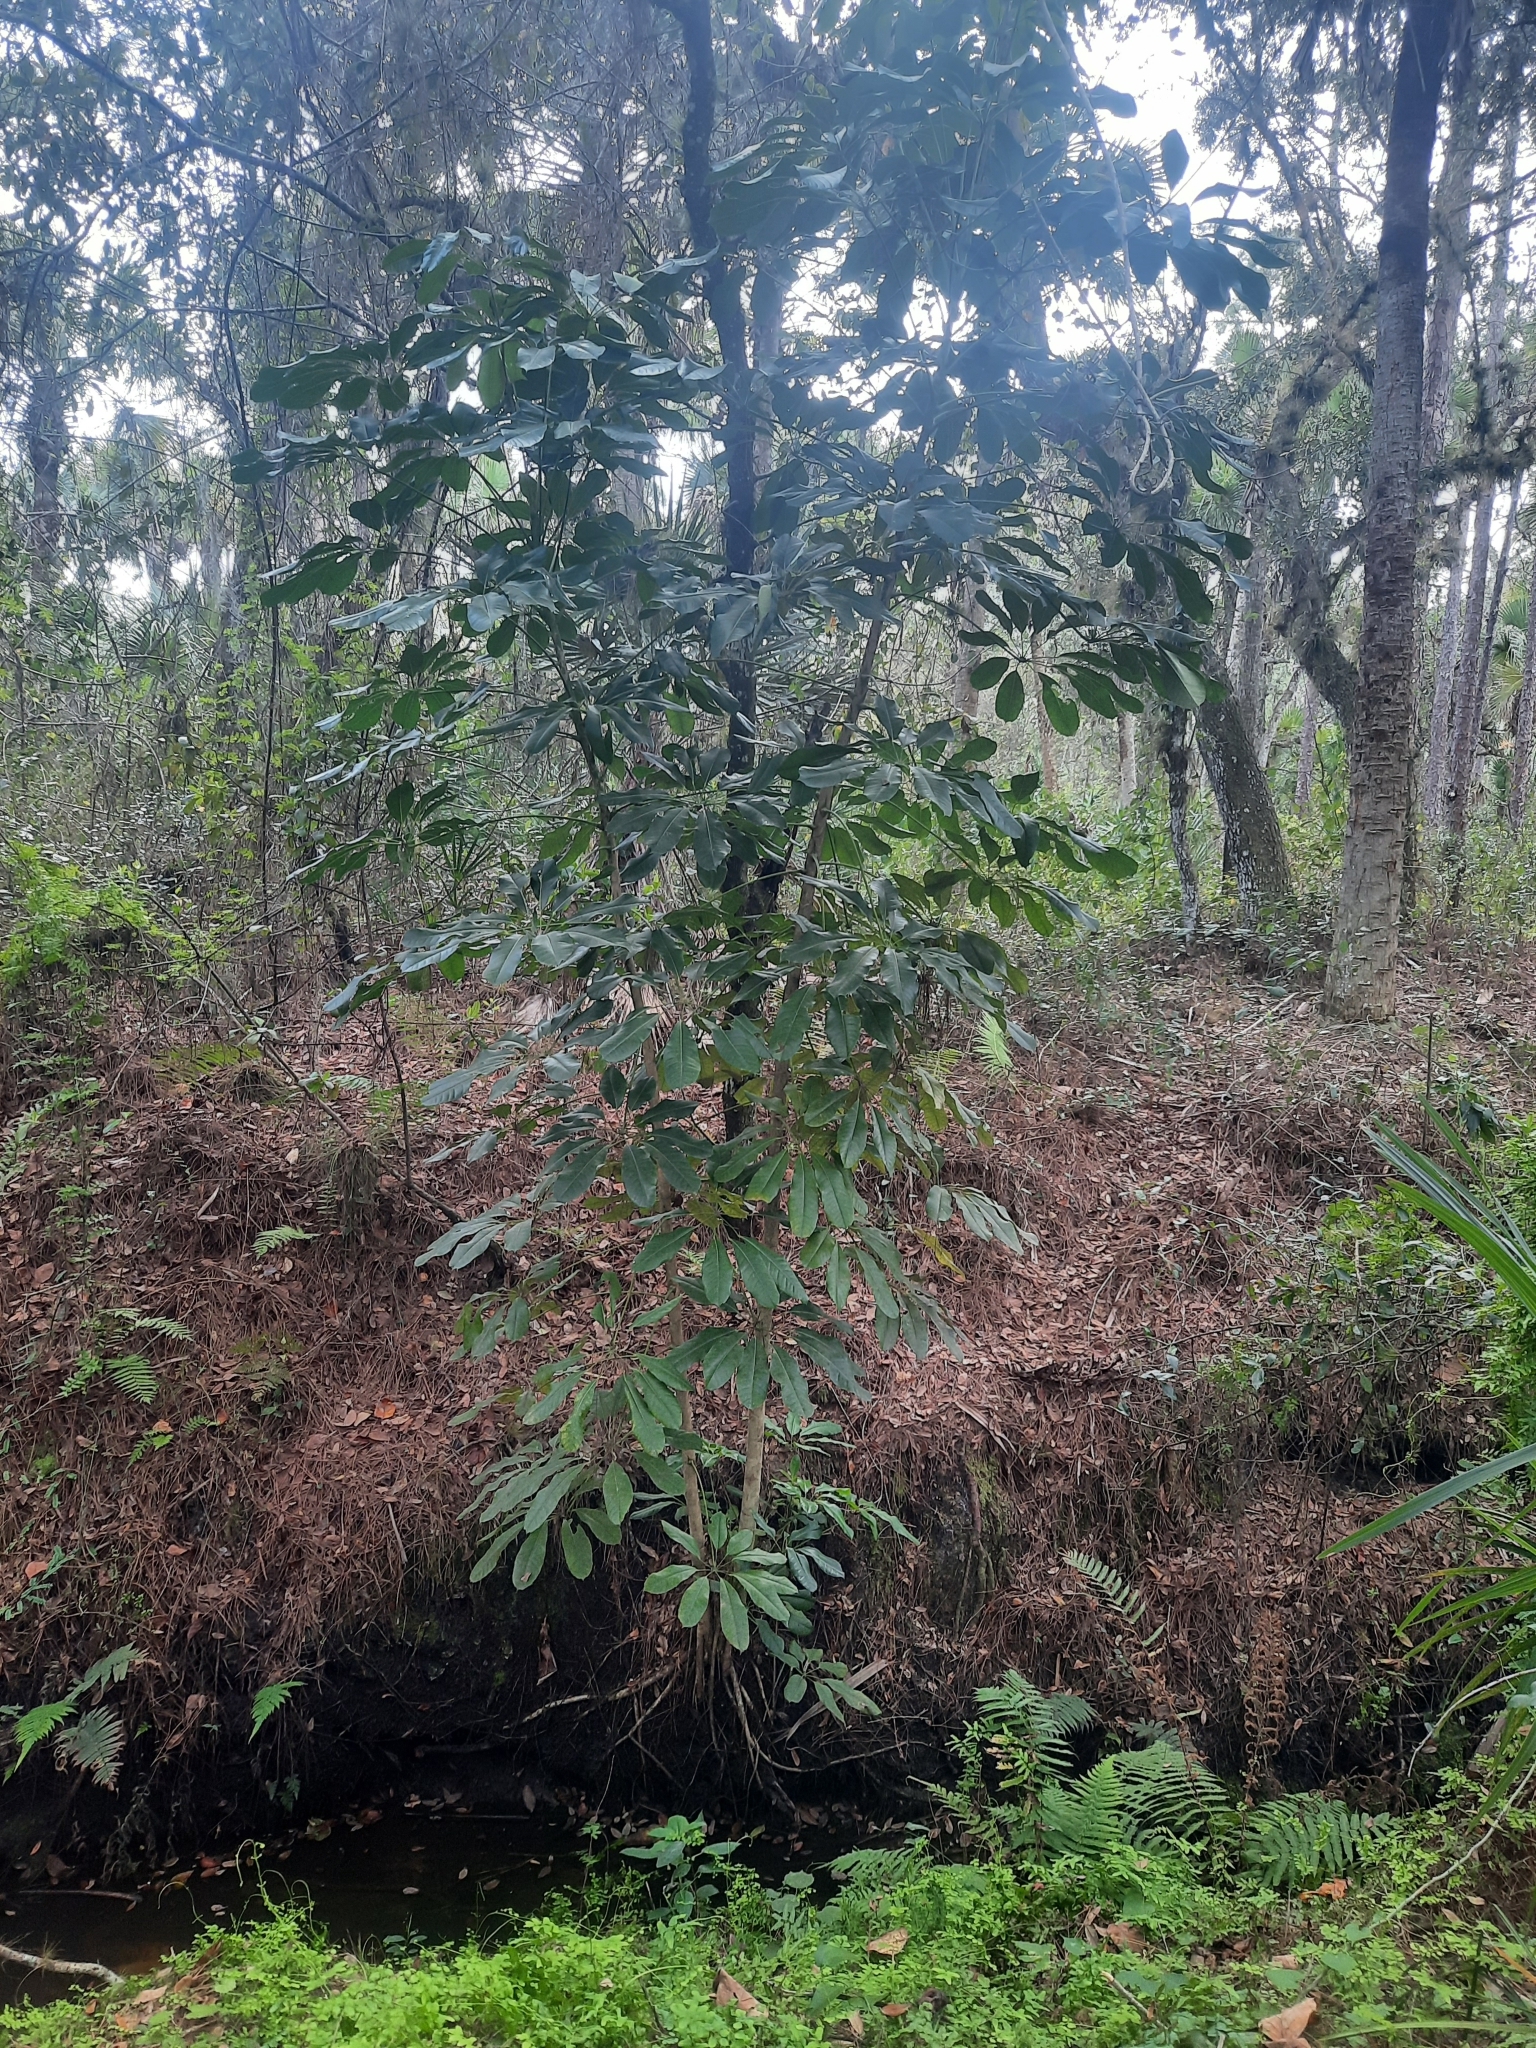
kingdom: Plantae
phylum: Tracheophyta
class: Magnoliopsida
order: Apiales
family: Araliaceae
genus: Heptapleurum
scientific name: Heptapleurum actinophyllum
